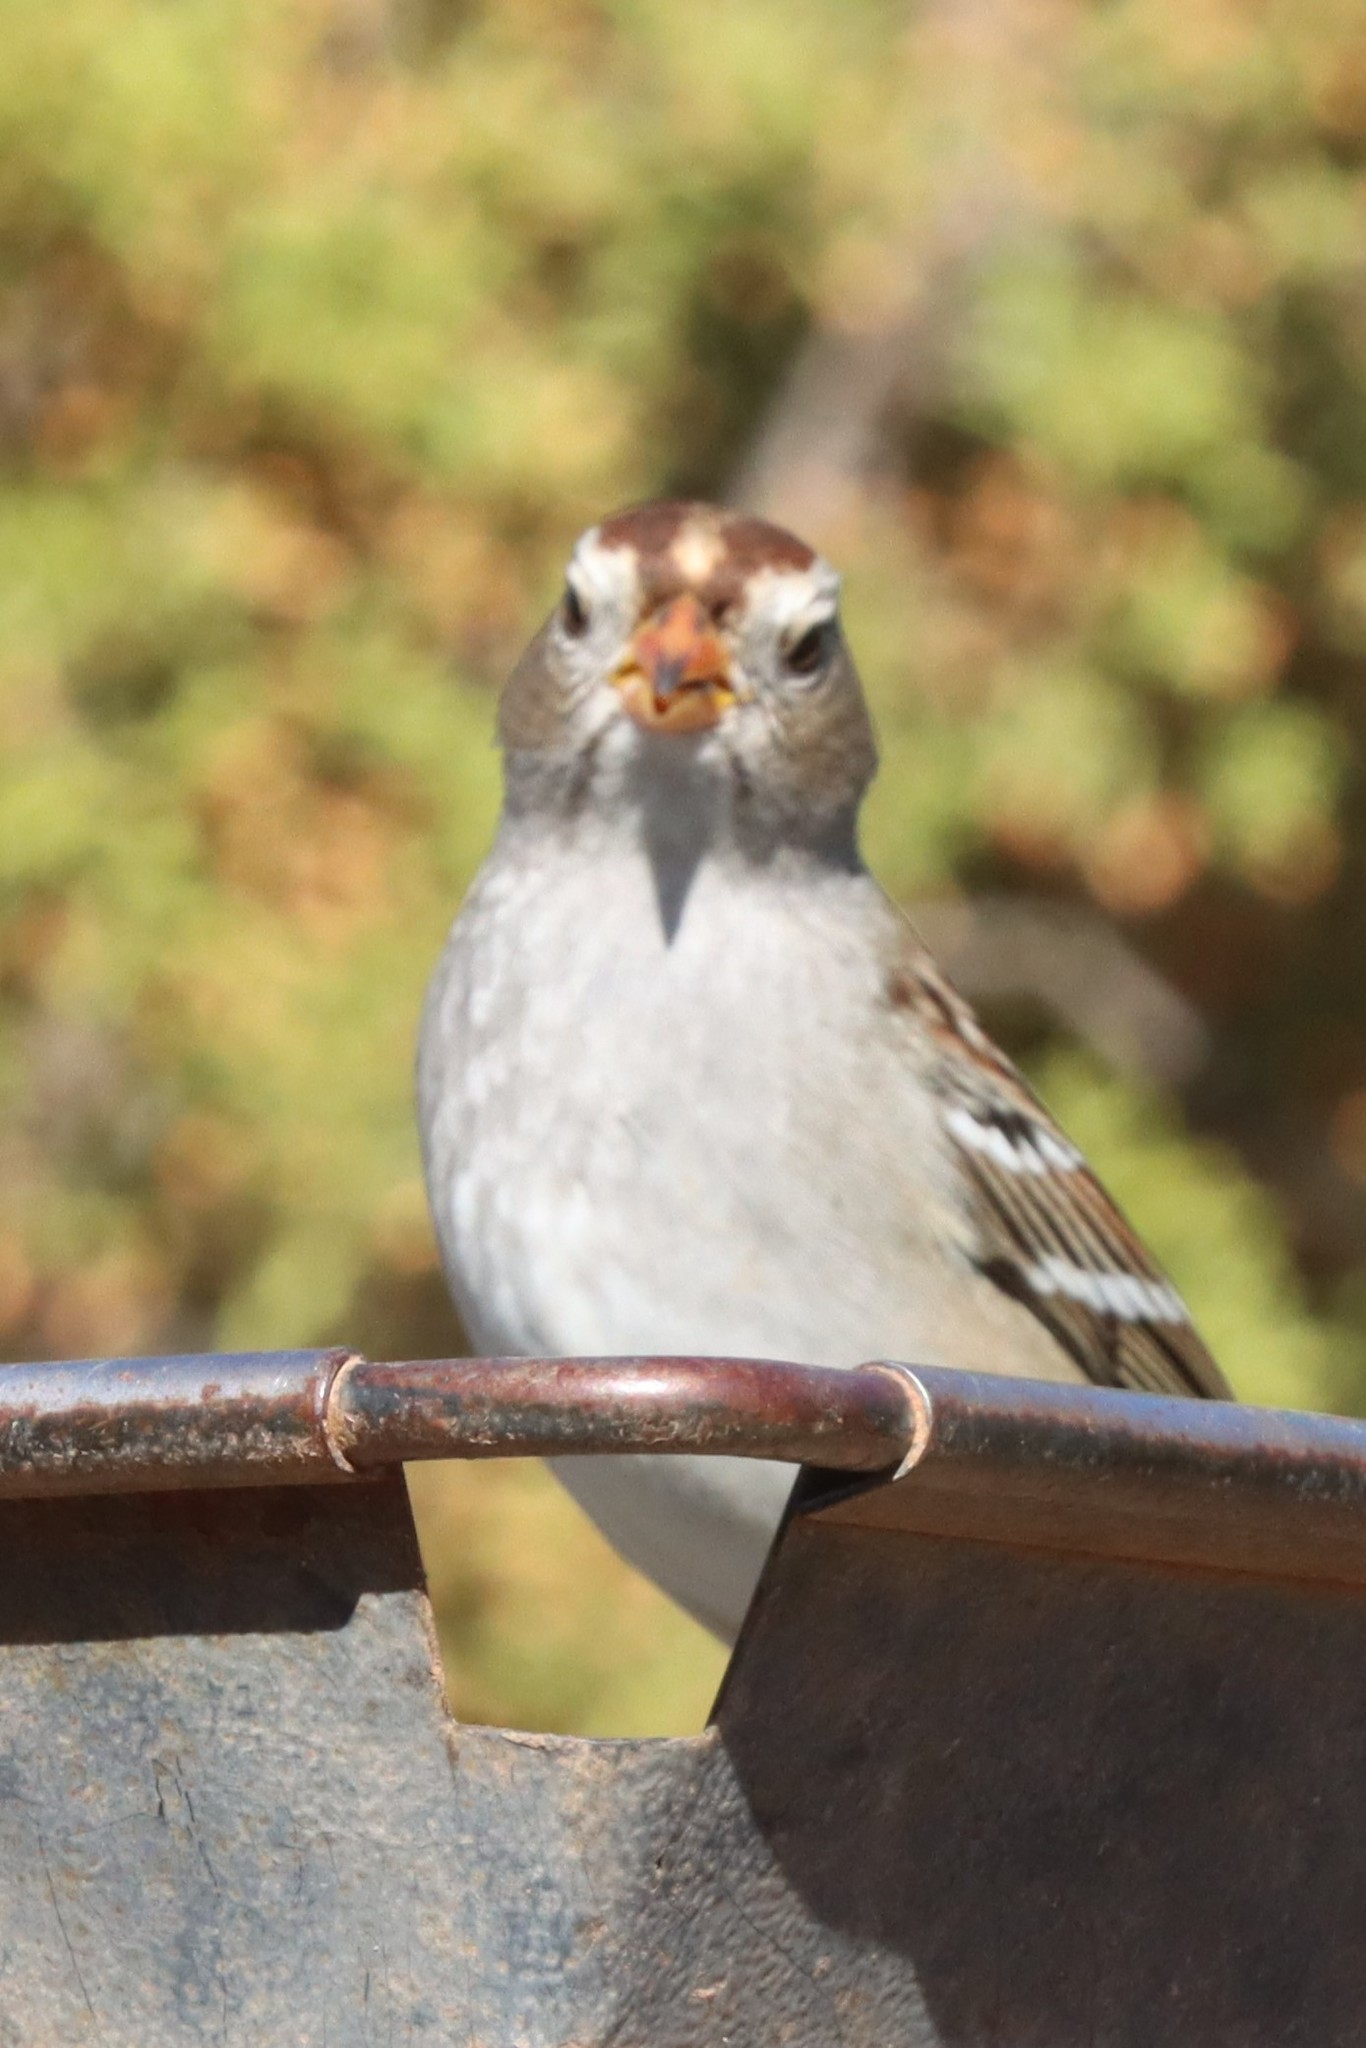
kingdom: Animalia
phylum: Chordata
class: Aves
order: Passeriformes
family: Passerellidae
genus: Zonotrichia
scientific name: Zonotrichia leucophrys
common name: White-crowned sparrow
